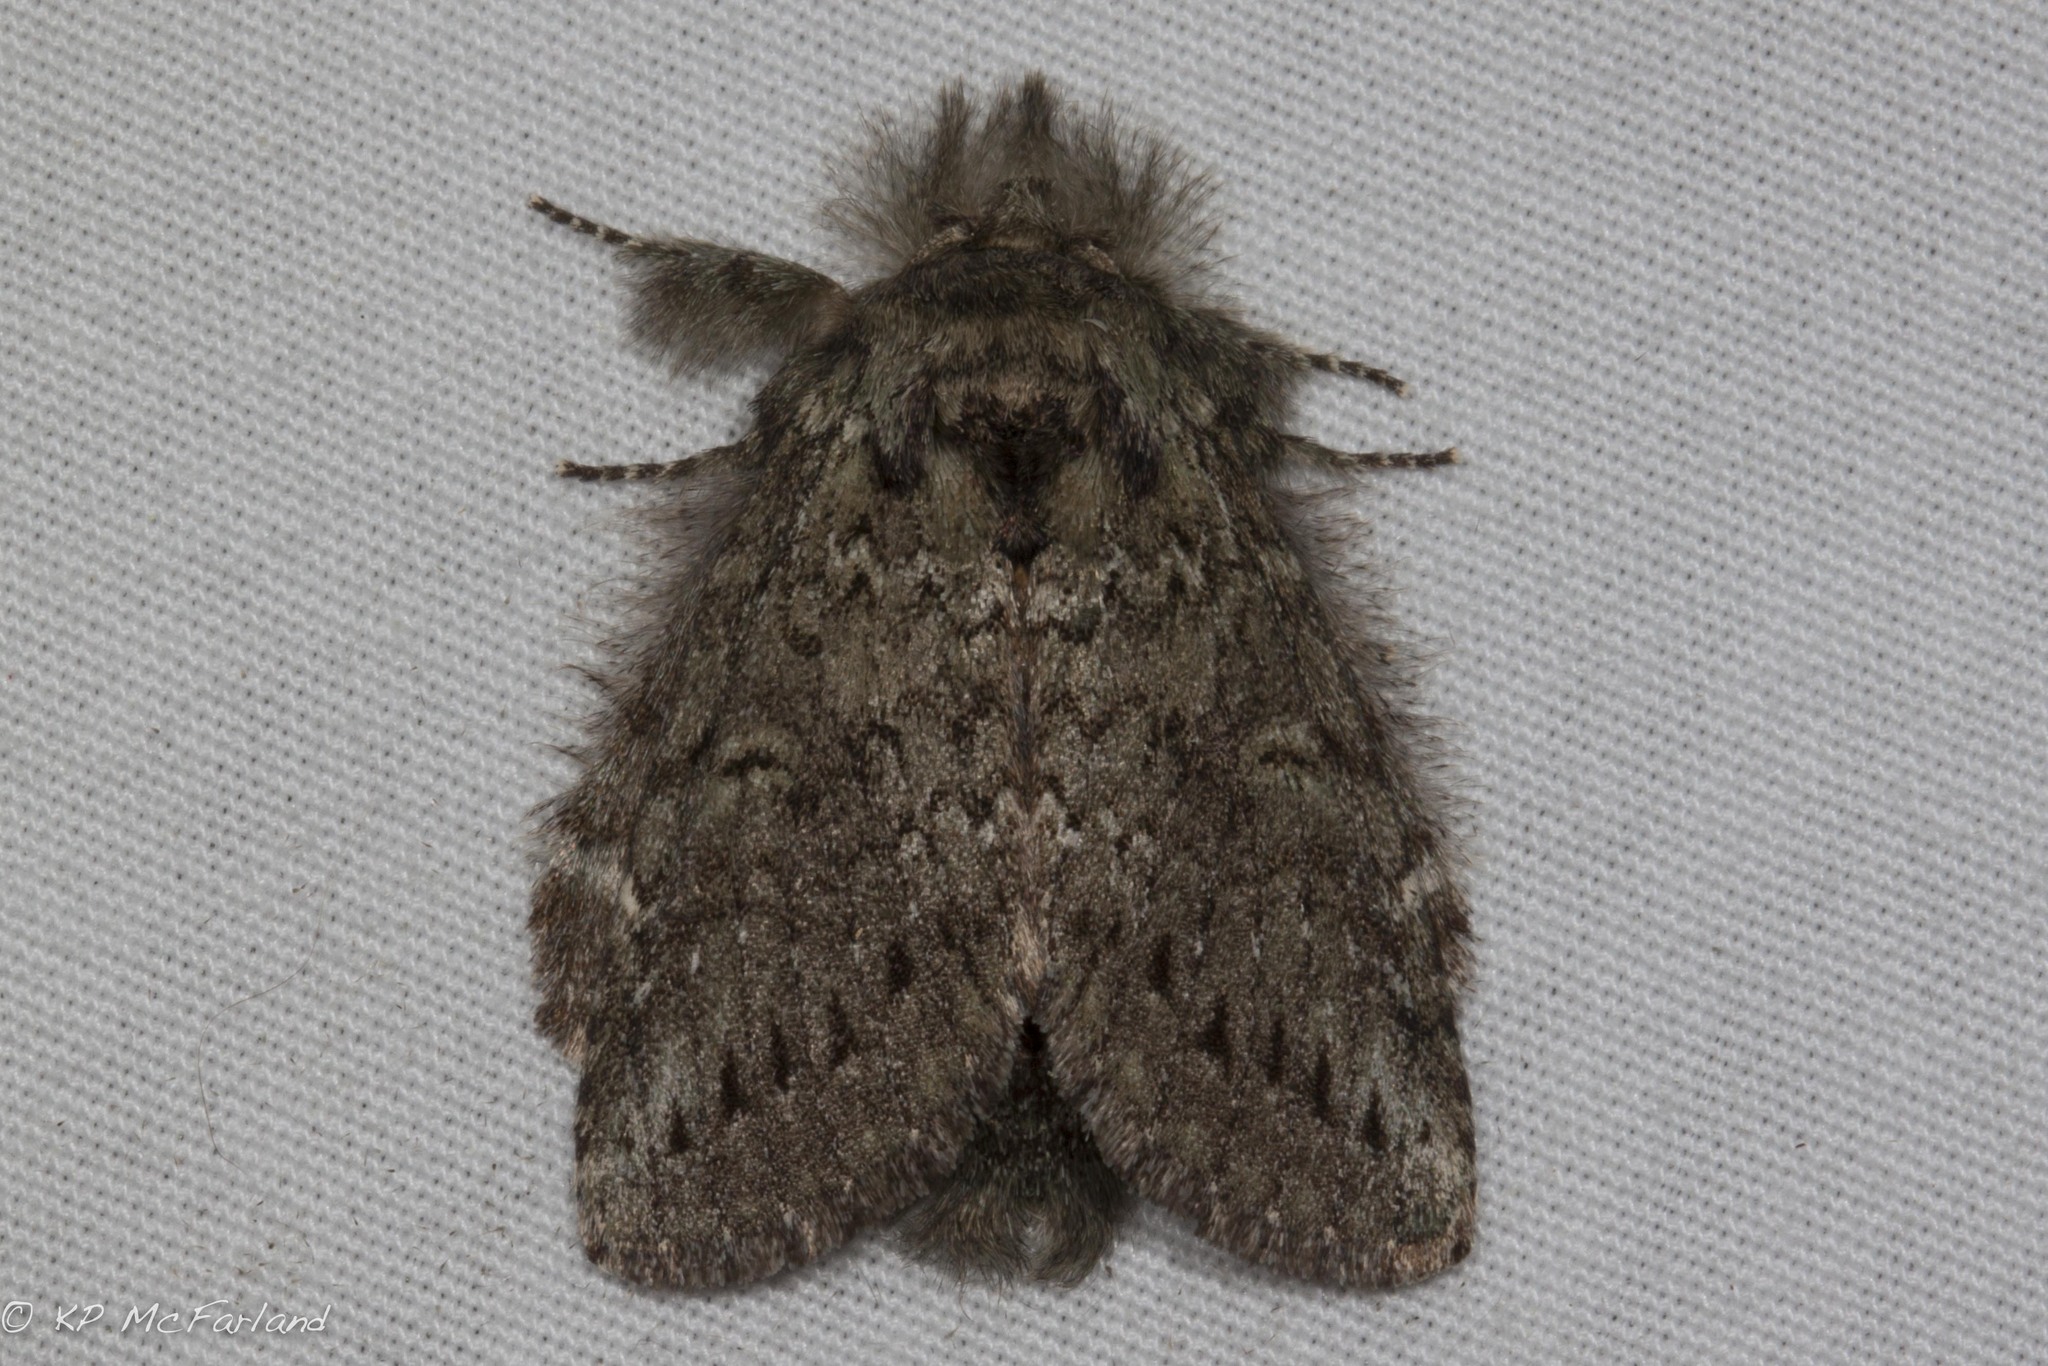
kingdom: Animalia
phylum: Arthropoda
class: Insecta
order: Lepidoptera
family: Notodontidae
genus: Disphragis
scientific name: Disphragis Cecrita guttivitta
